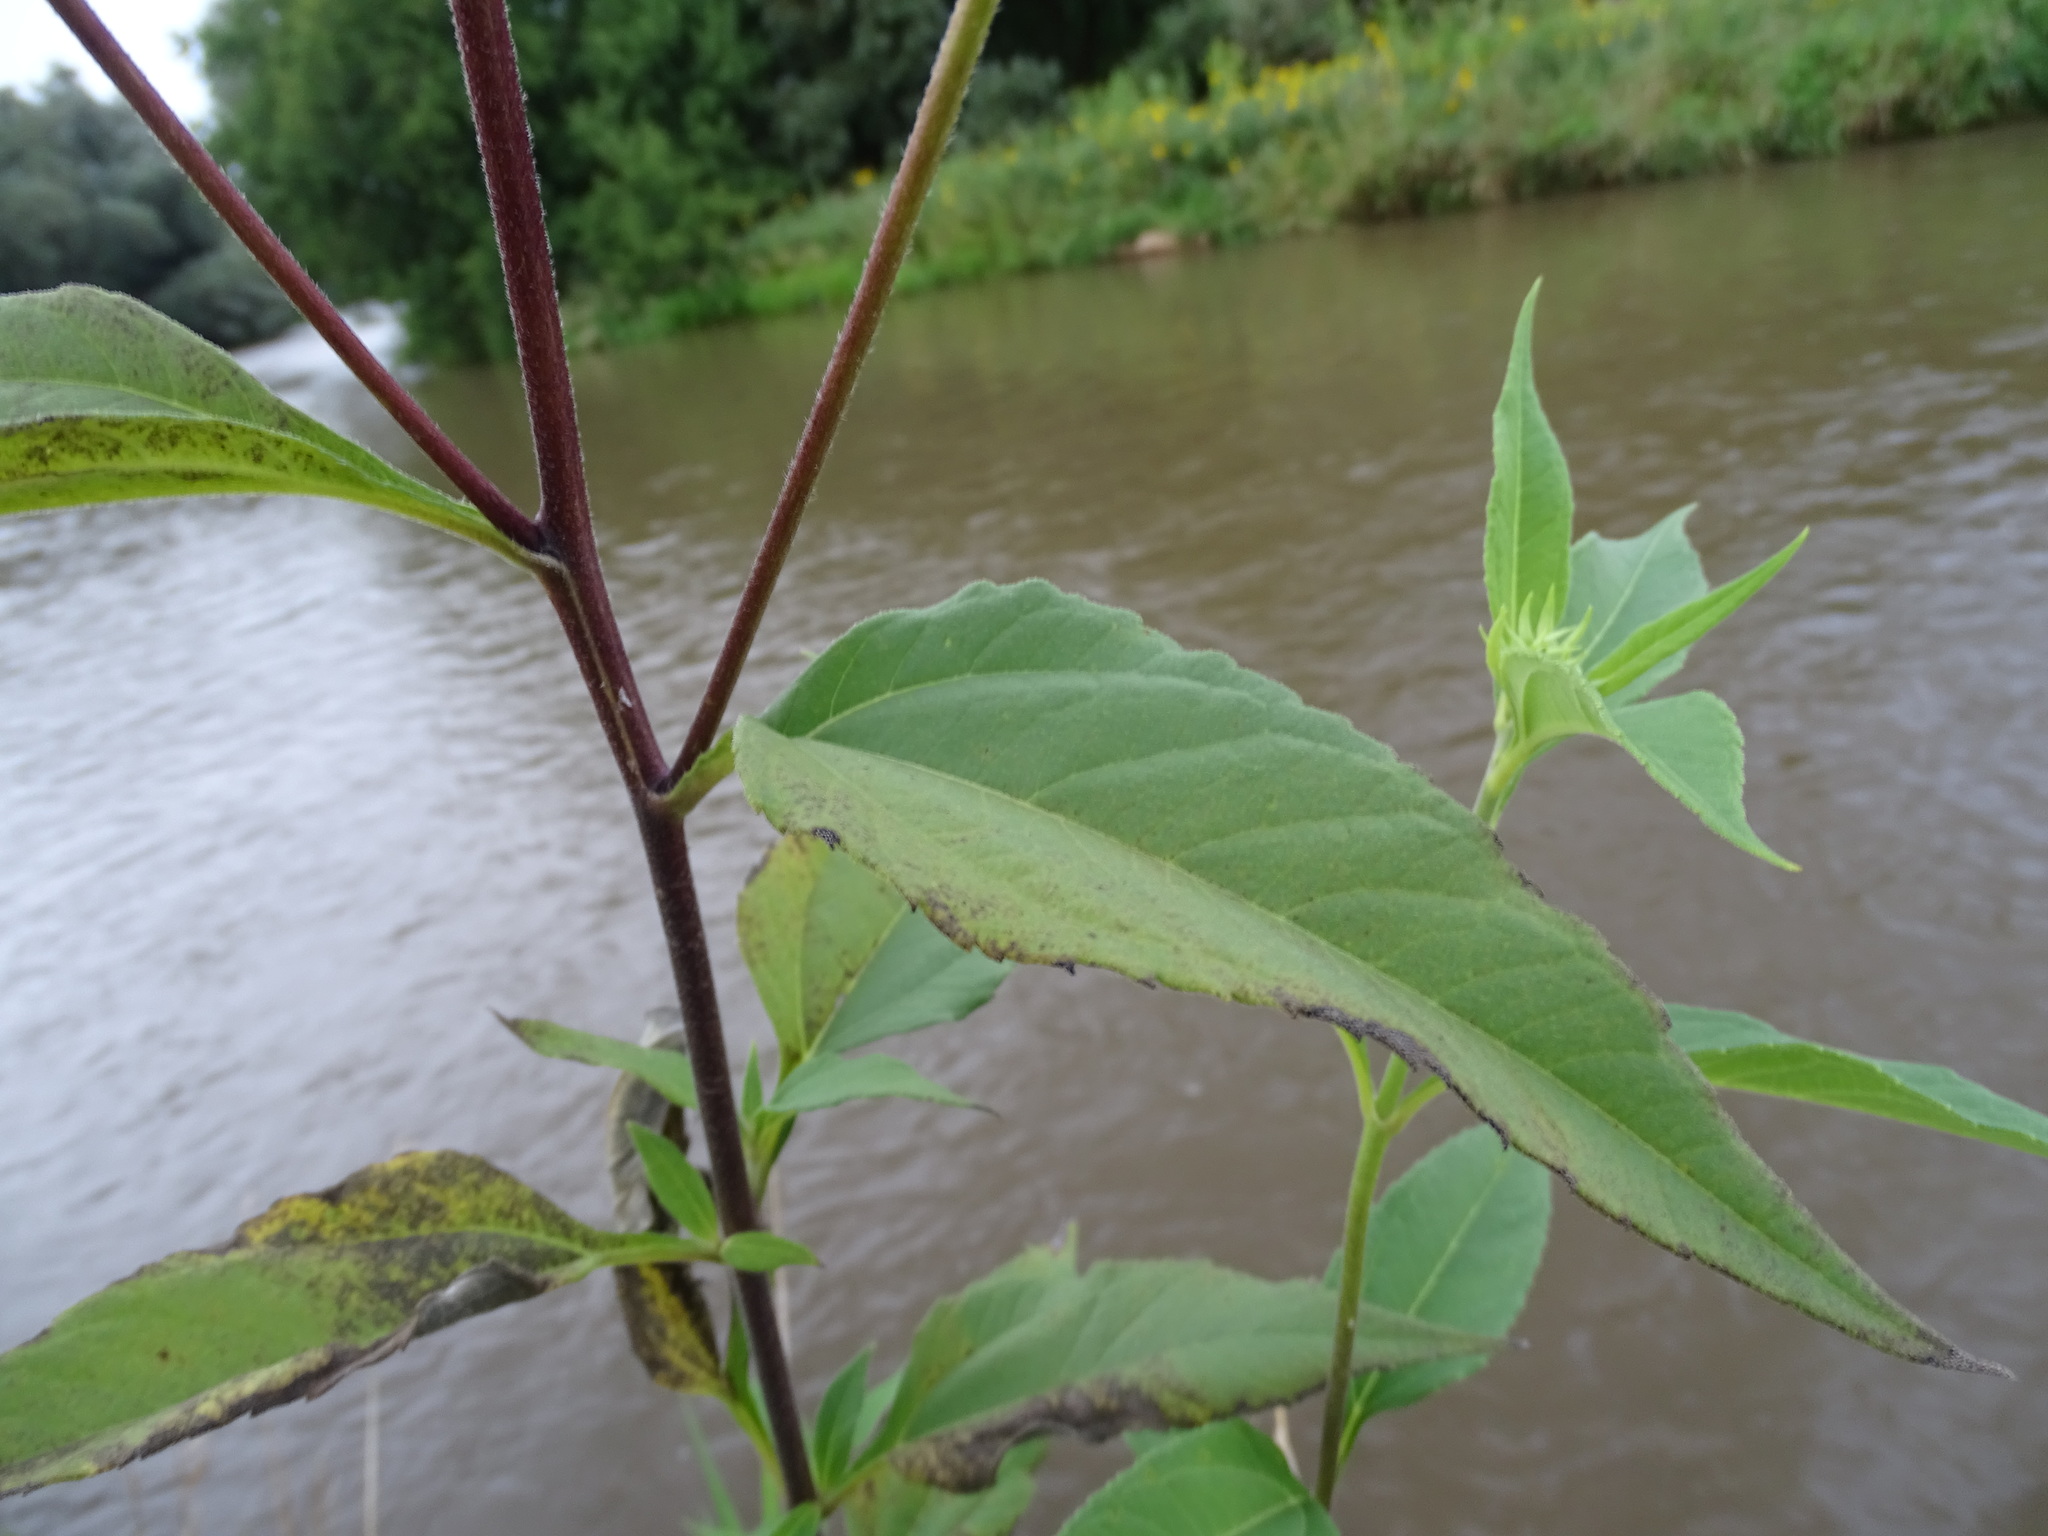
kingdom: Plantae
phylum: Tracheophyta
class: Magnoliopsida
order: Asterales
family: Asteraceae
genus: Helianthus
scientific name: Helianthus tuberosus
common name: Jerusalem artichoke
